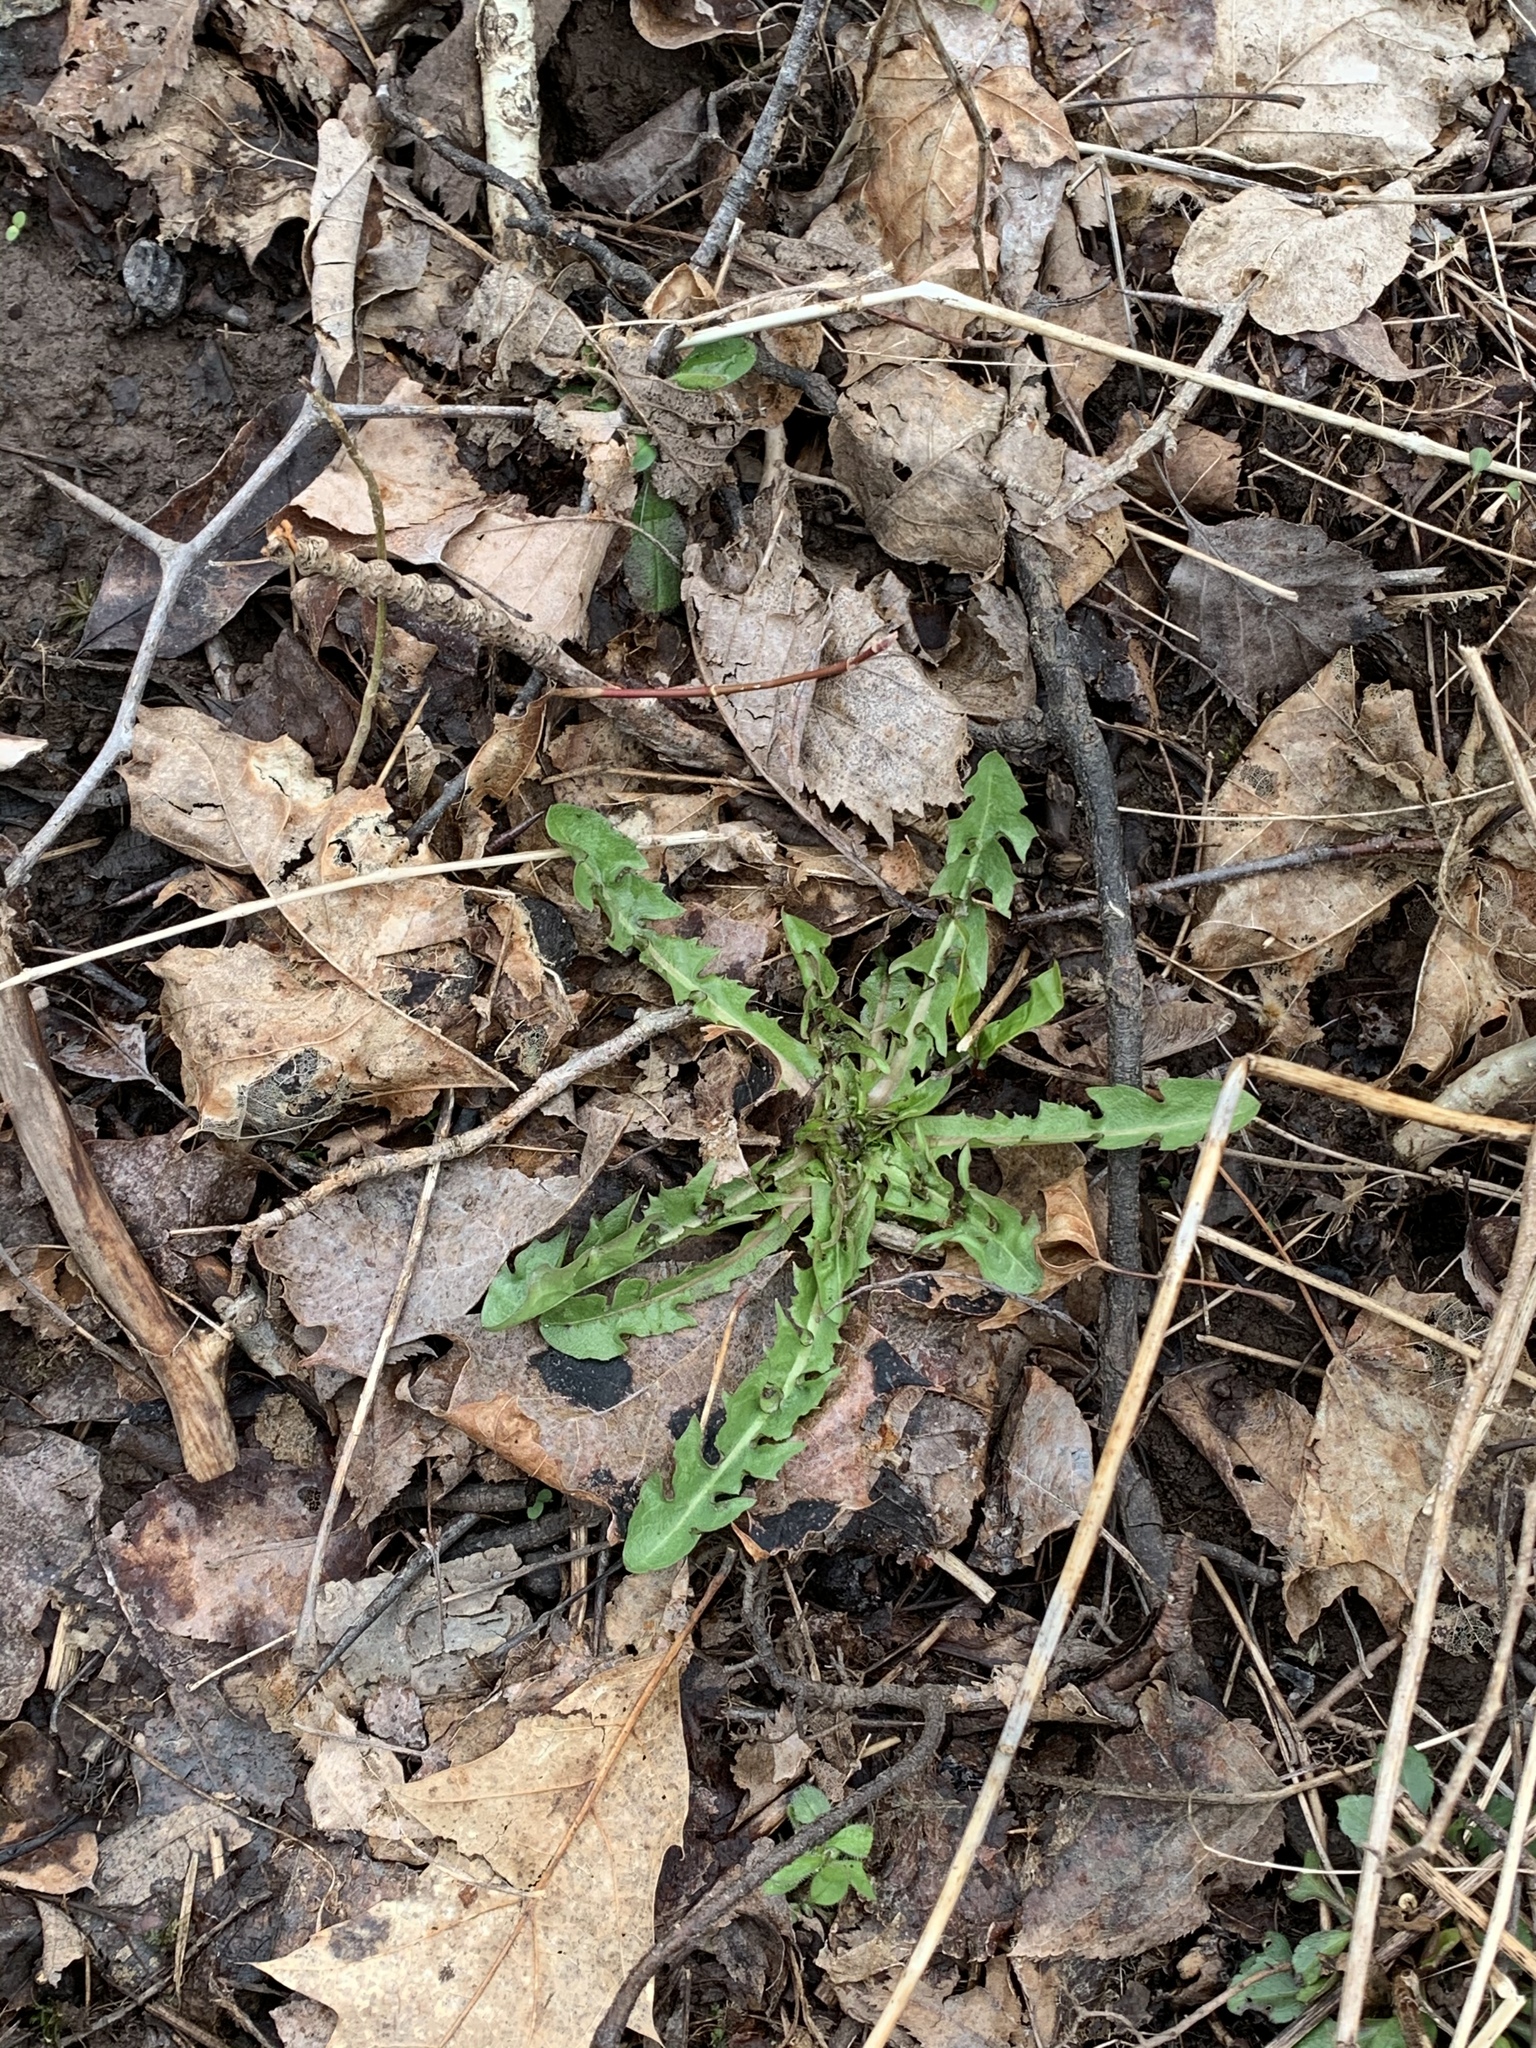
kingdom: Plantae
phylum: Tracheophyta
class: Magnoliopsida
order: Asterales
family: Asteraceae
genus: Taraxacum
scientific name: Taraxacum officinale
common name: Common dandelion
